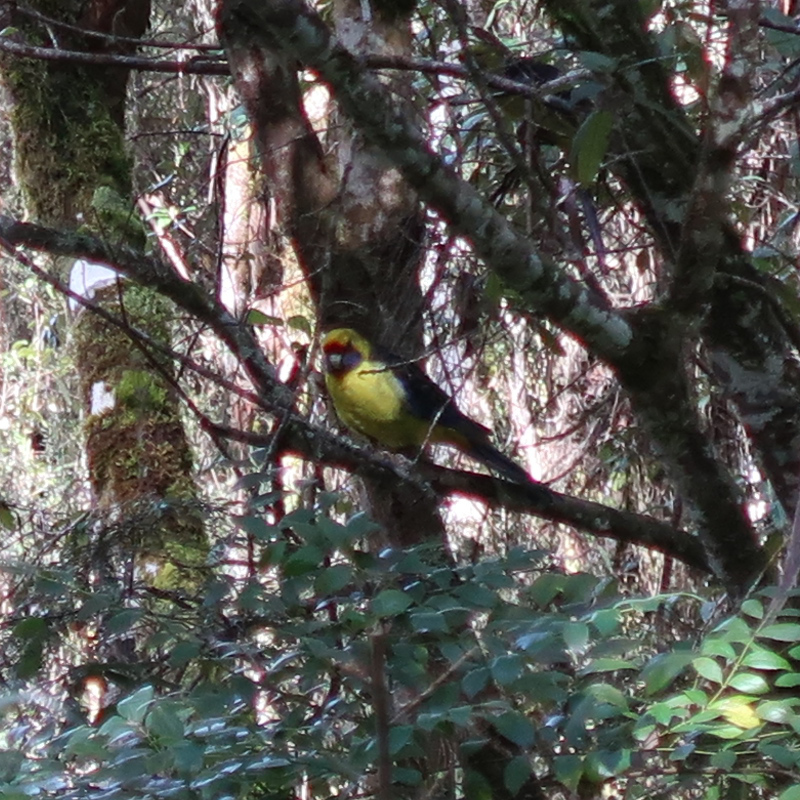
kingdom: Animalia
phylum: Chordata
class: Aves
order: Psittaciformes
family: Psittacidae
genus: Platycercus
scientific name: Platycercus caledonicus
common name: Green rosella
